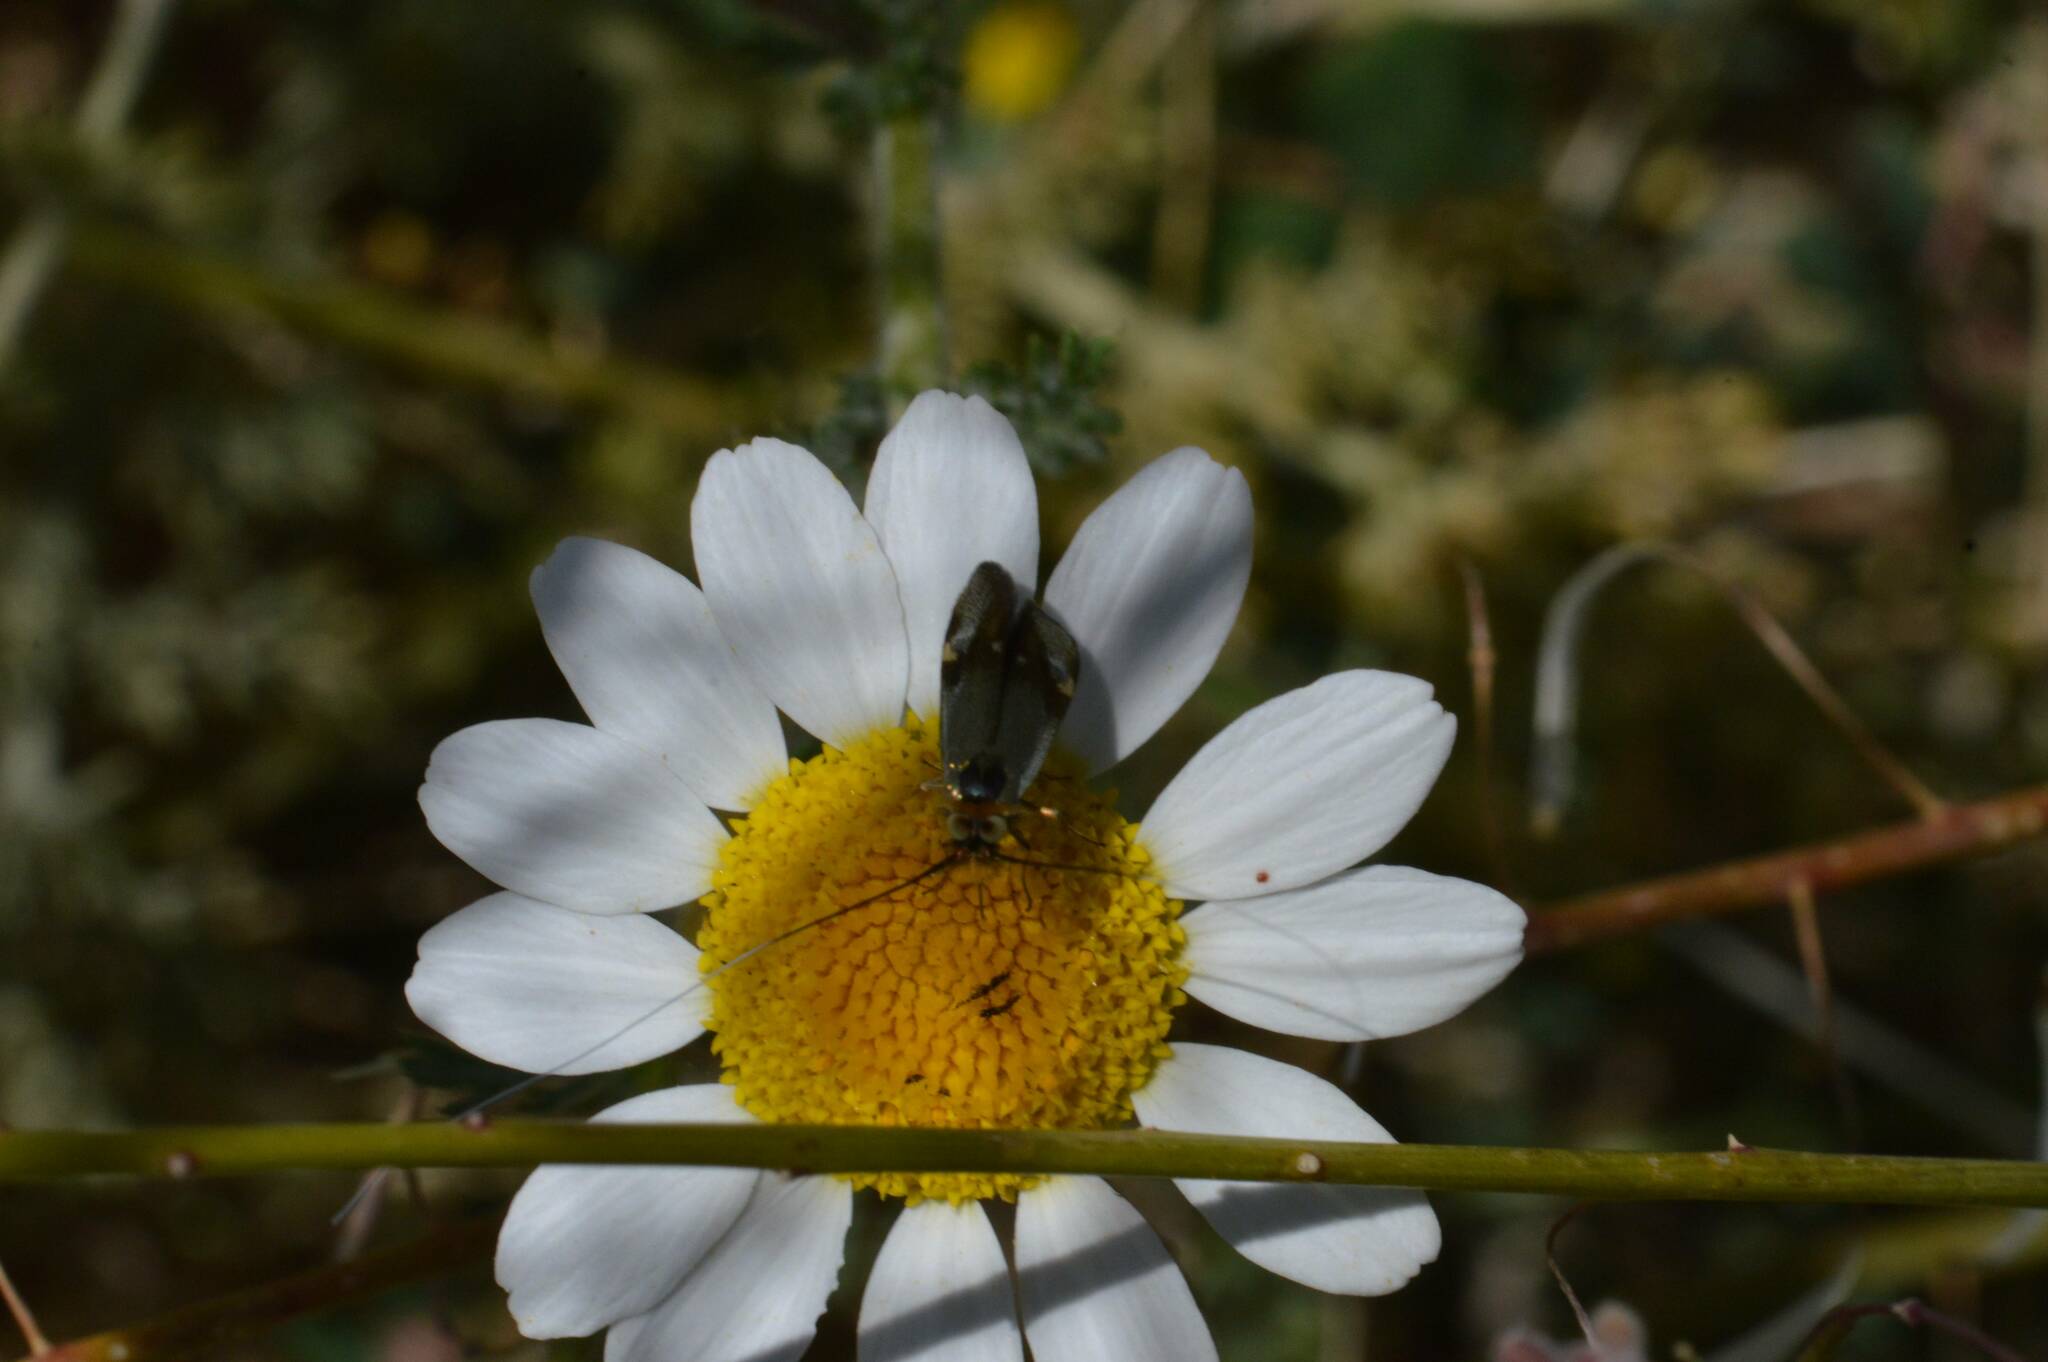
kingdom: Animalia
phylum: Arthropoda
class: Insecta
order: Lepidoptera
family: Adelidae
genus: Nemophora
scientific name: Nemophora raddaella
